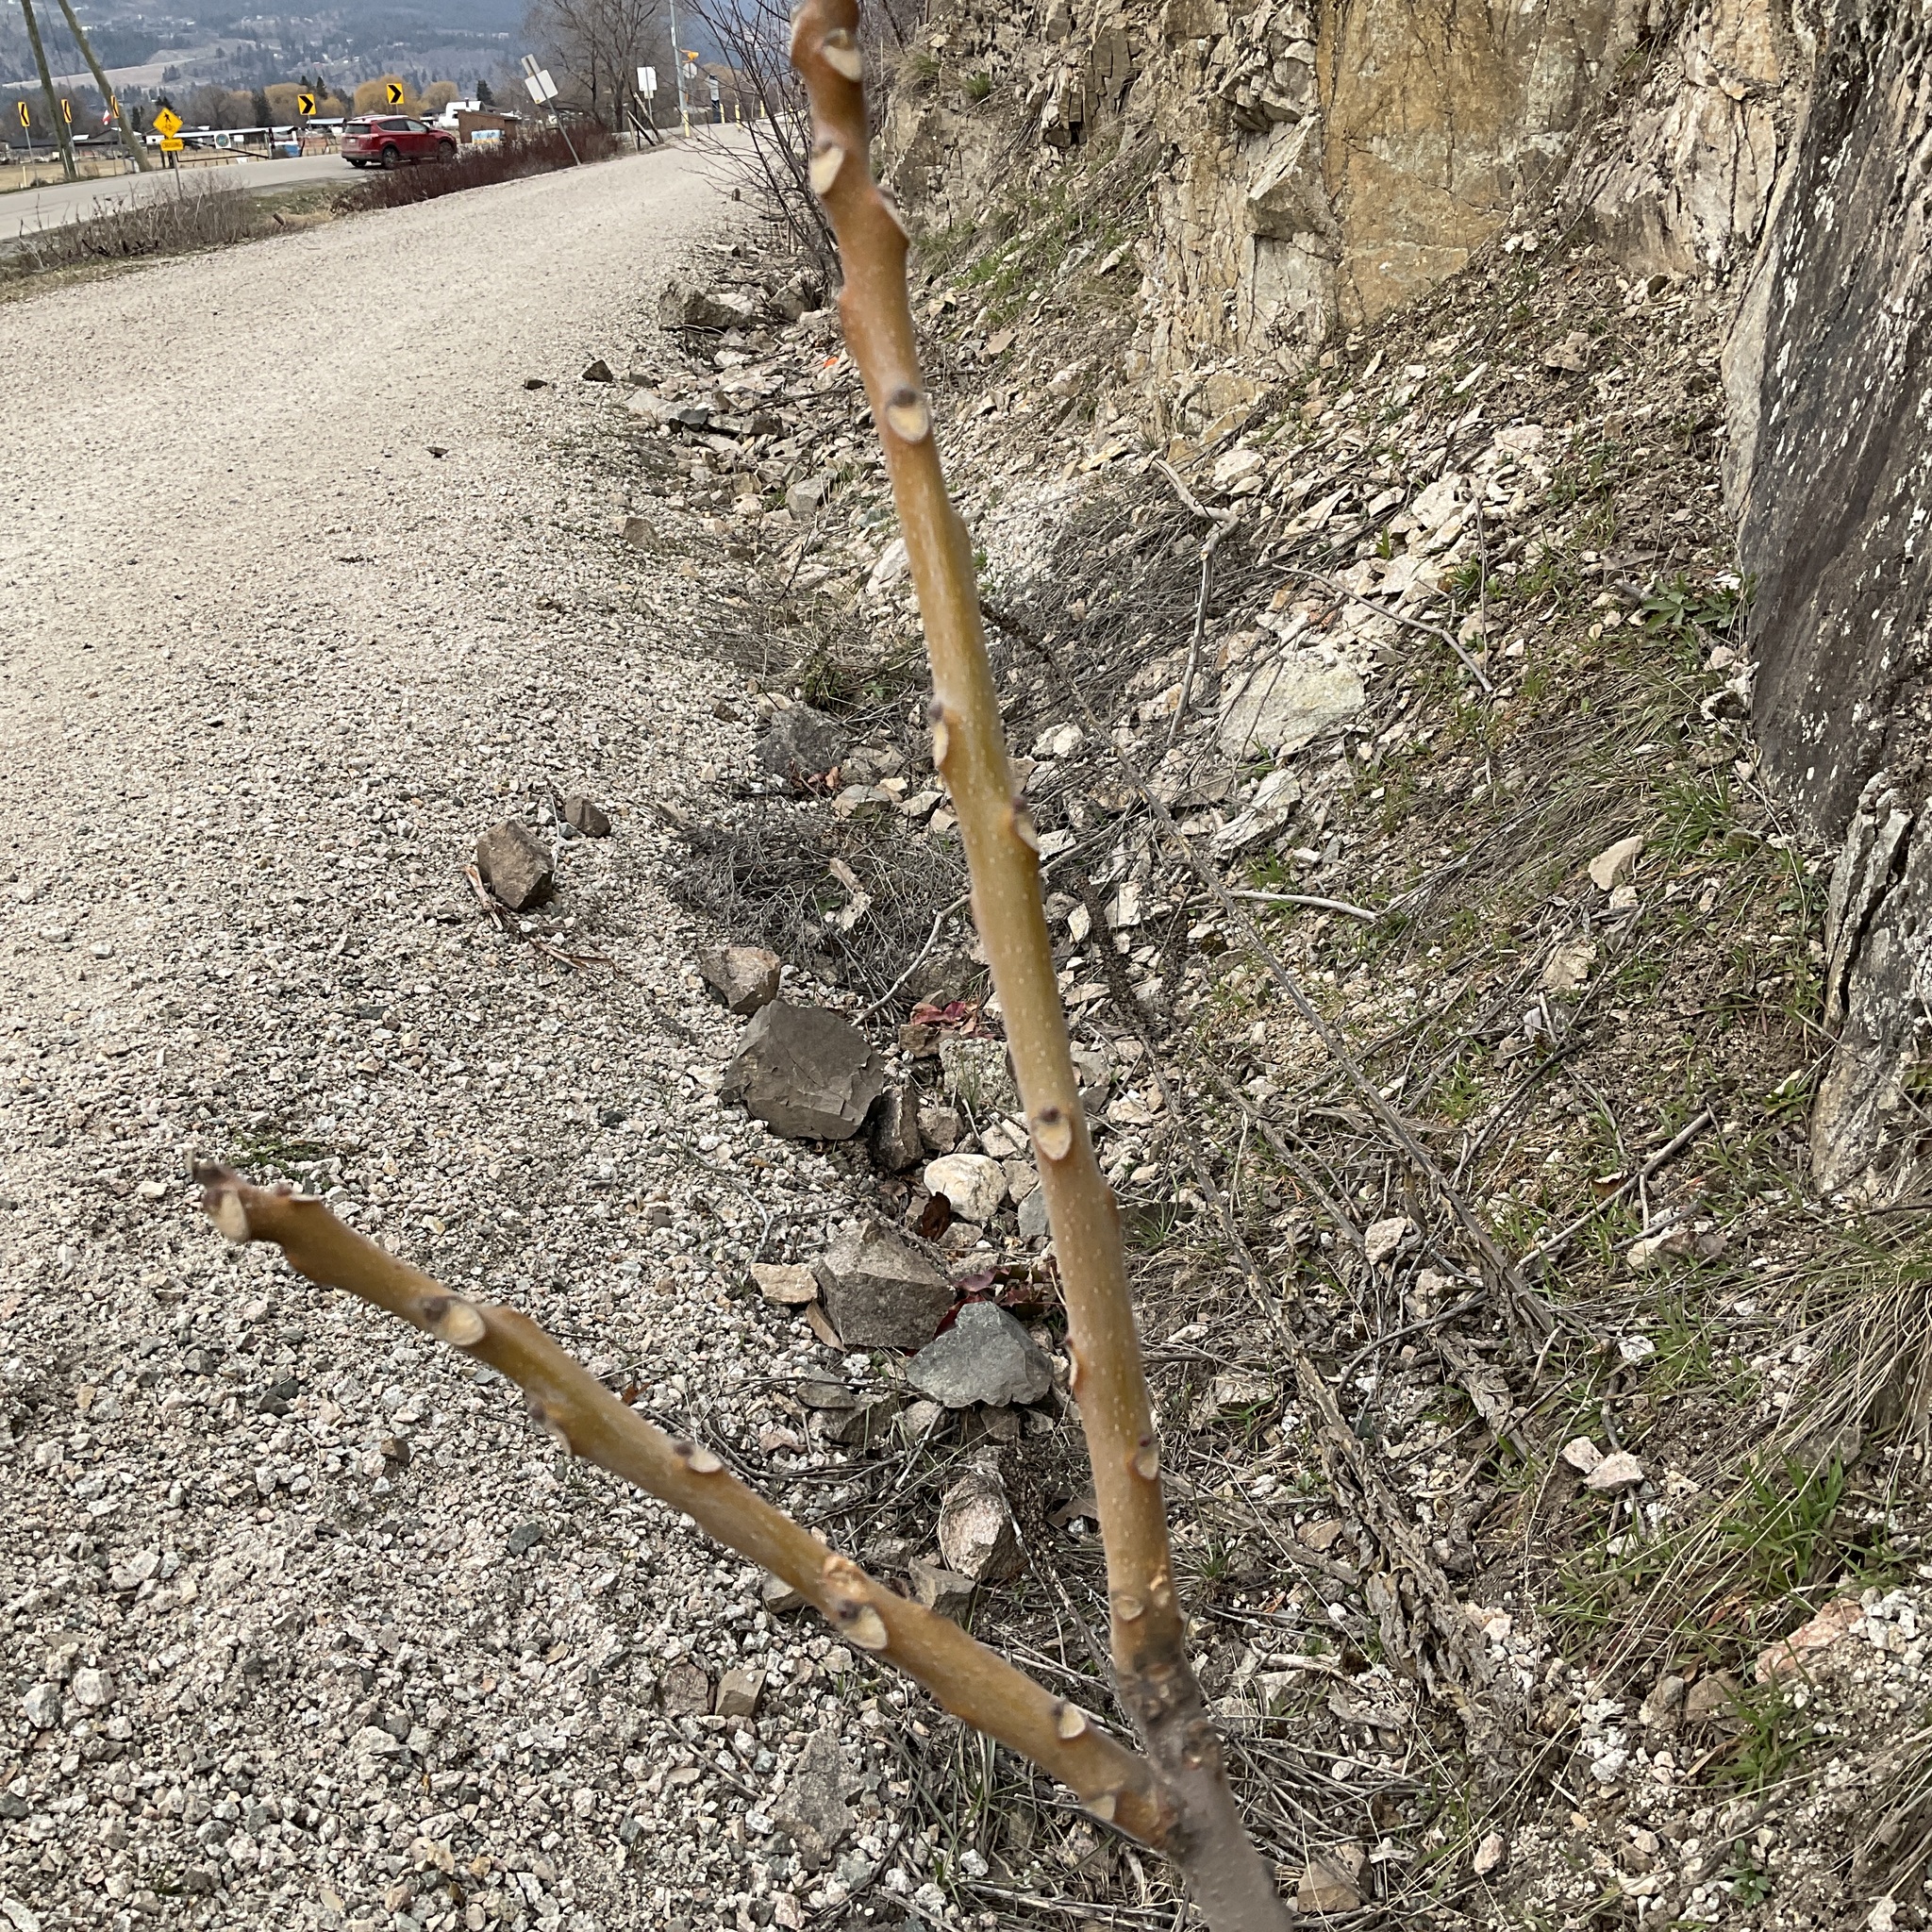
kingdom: Plantae
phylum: Tracheophyta
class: Magnoliopsida
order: Sapindales
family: Simaroubaceae
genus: Ailanthus
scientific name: Ailanthus altissima
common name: Tree-of-heaven
